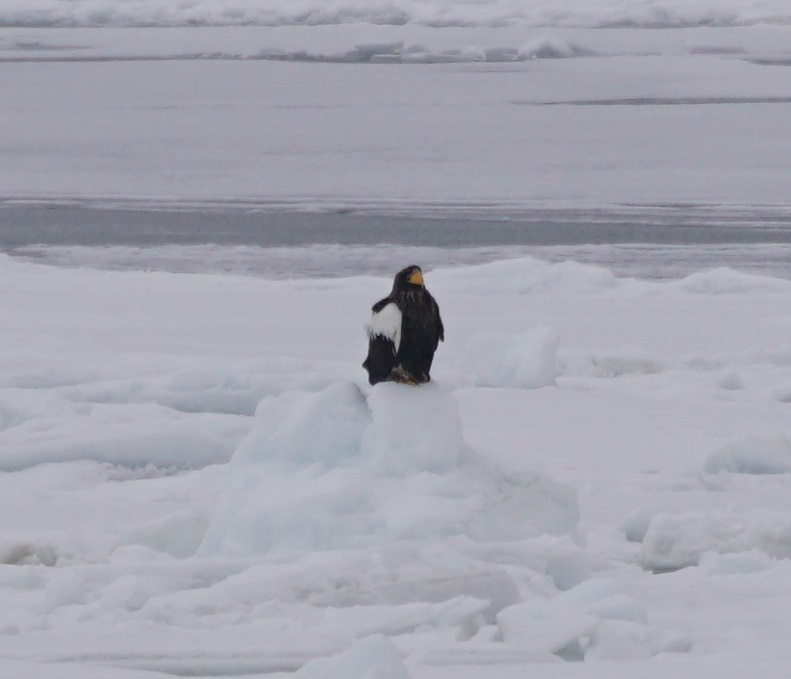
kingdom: Animalia
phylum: Chordata
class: Aves
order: Accipitriformes
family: Accipitridae
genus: Haliaeetus
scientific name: Haliaeetus pelagicus
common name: Steller's sea eagle
